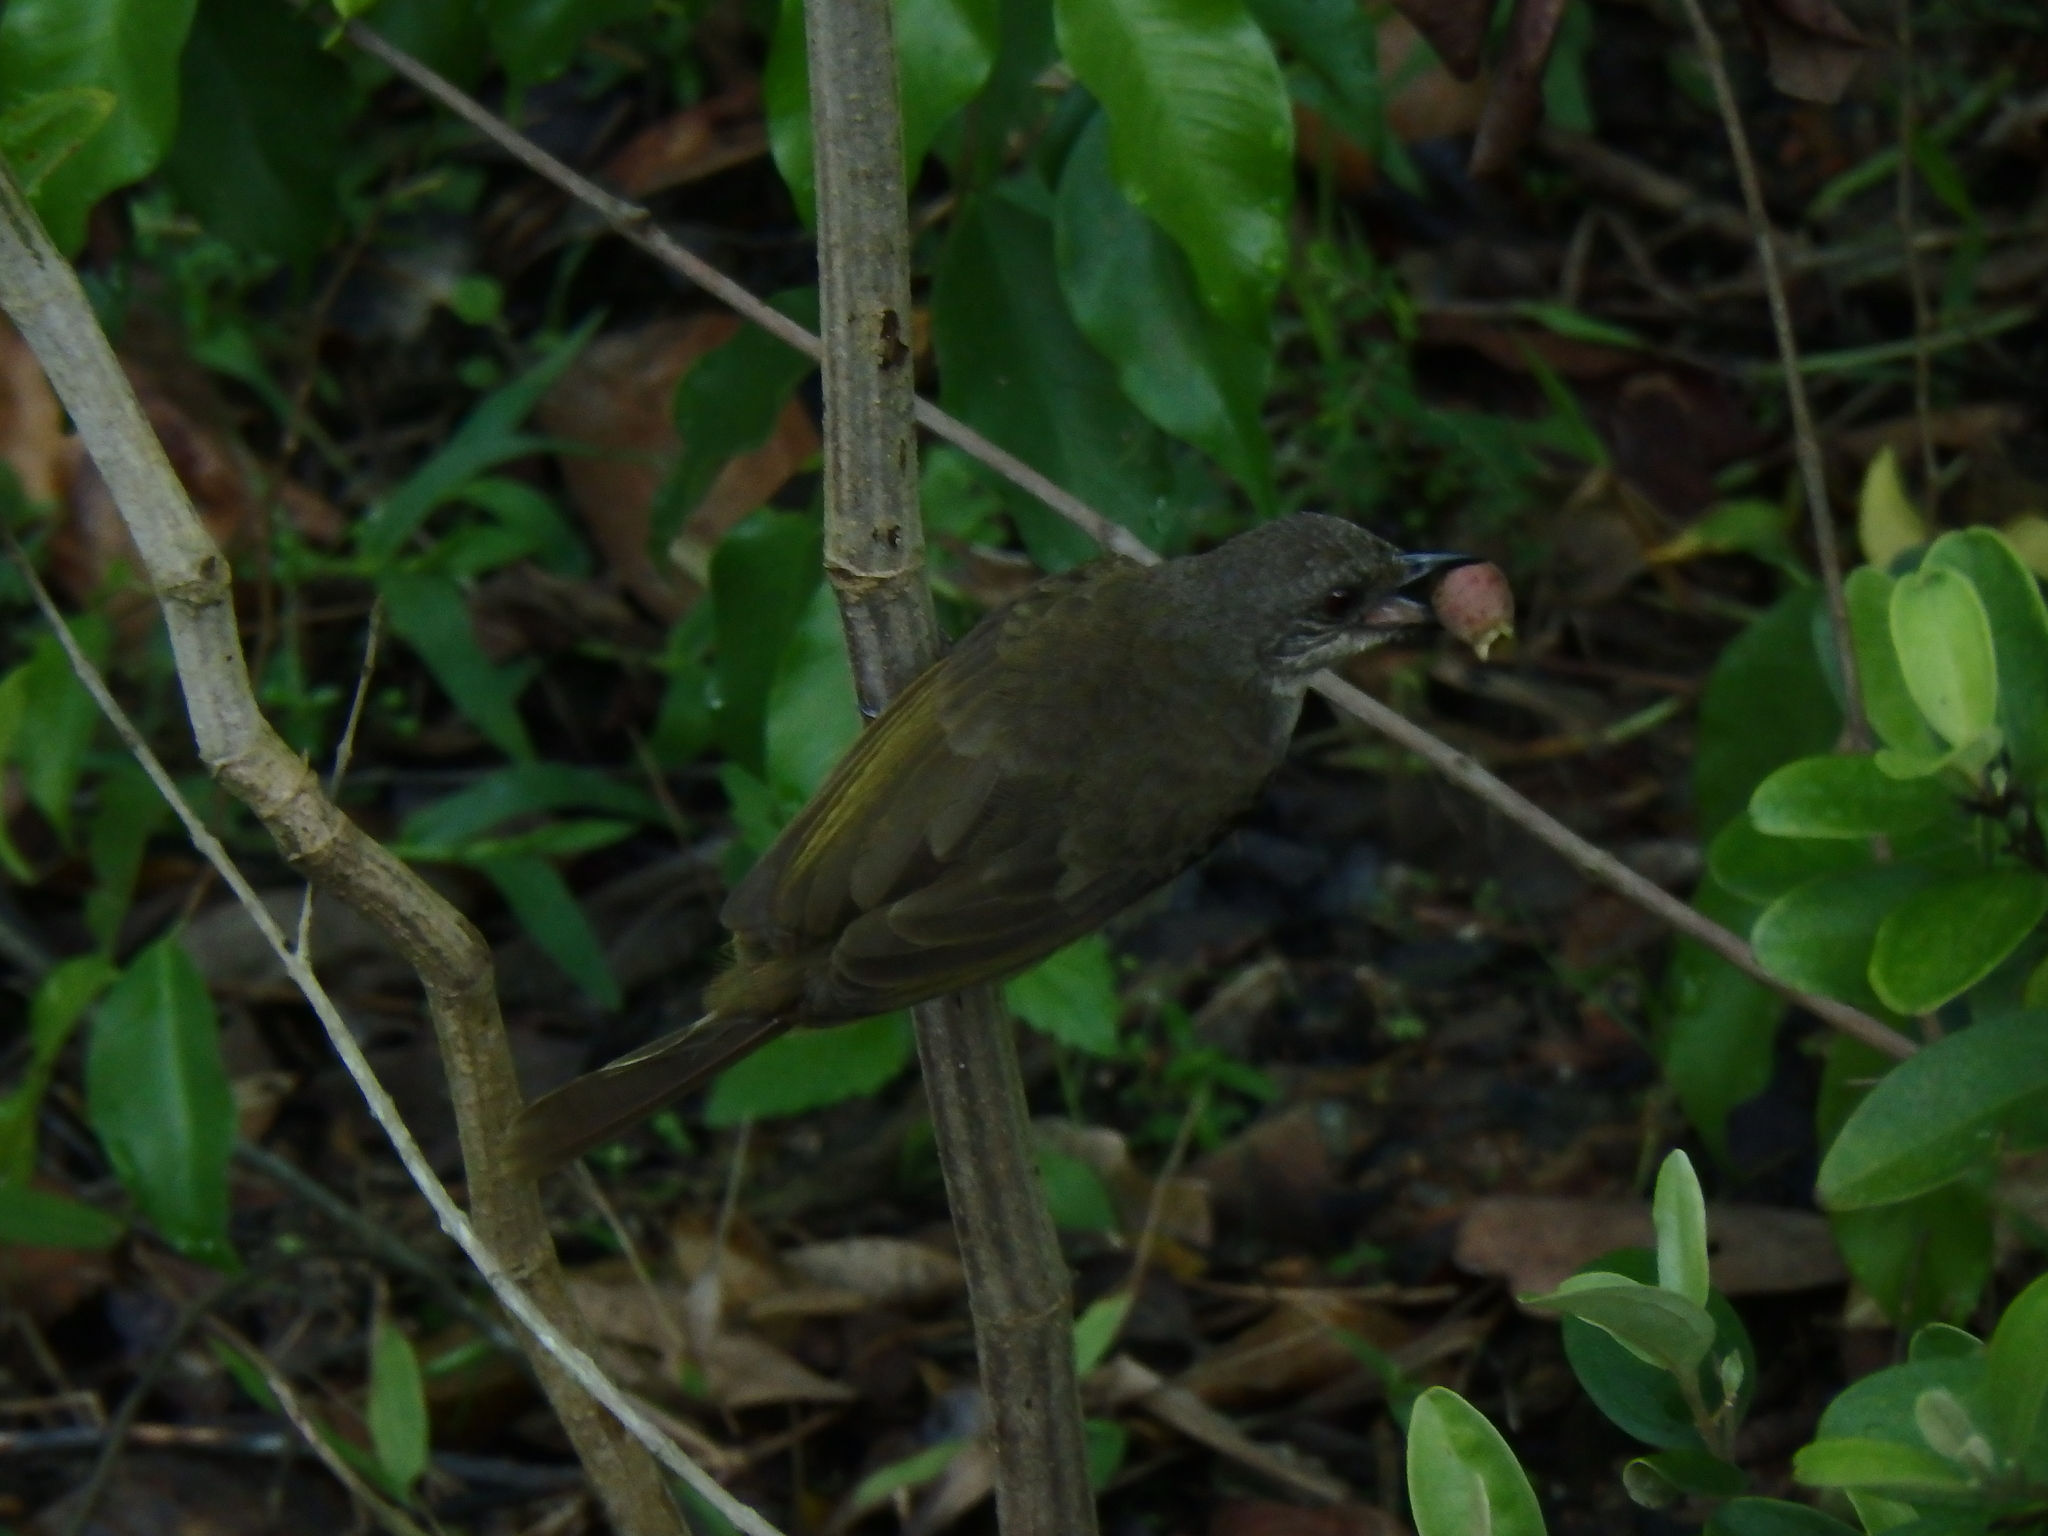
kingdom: Animalia
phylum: Chordata
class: Aves
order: Passeriformes
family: Pycnonotidae
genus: Pycnonotus
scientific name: Pycnonotus plumosus
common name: Olive-winged bulbul
